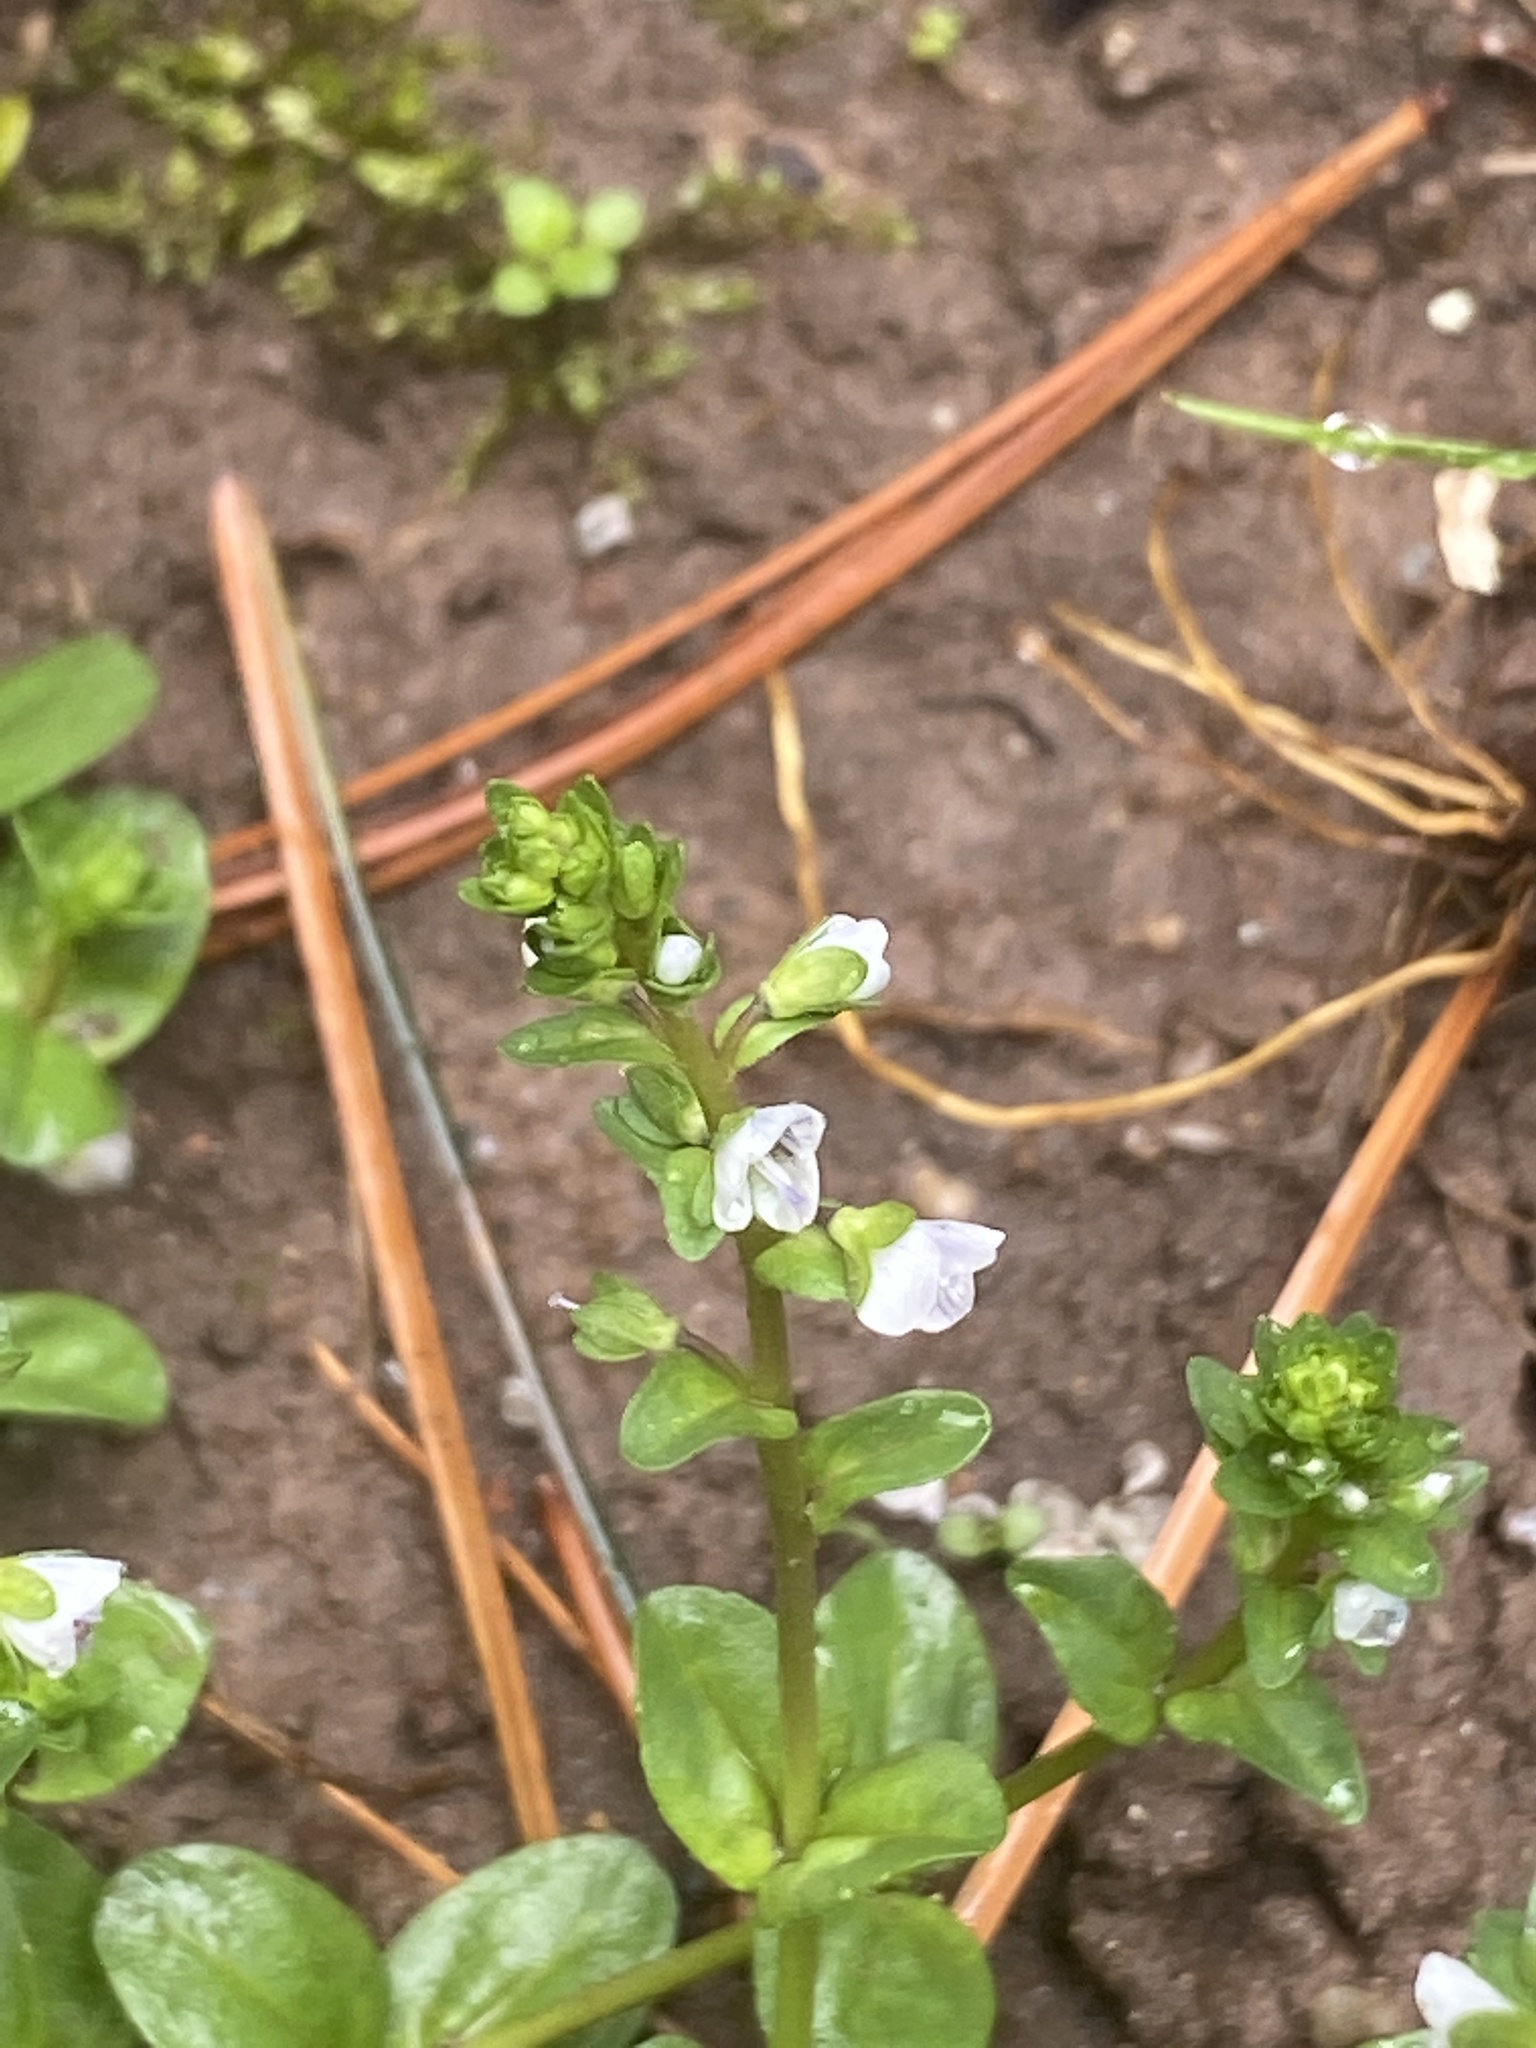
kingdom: Plantae
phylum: Tracheophyta
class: Magnoliopsida
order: Lamiales
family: Plantaginaceae
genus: Veronica
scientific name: Veronica serpyllifolia
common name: Thyme-leaved speedwell
